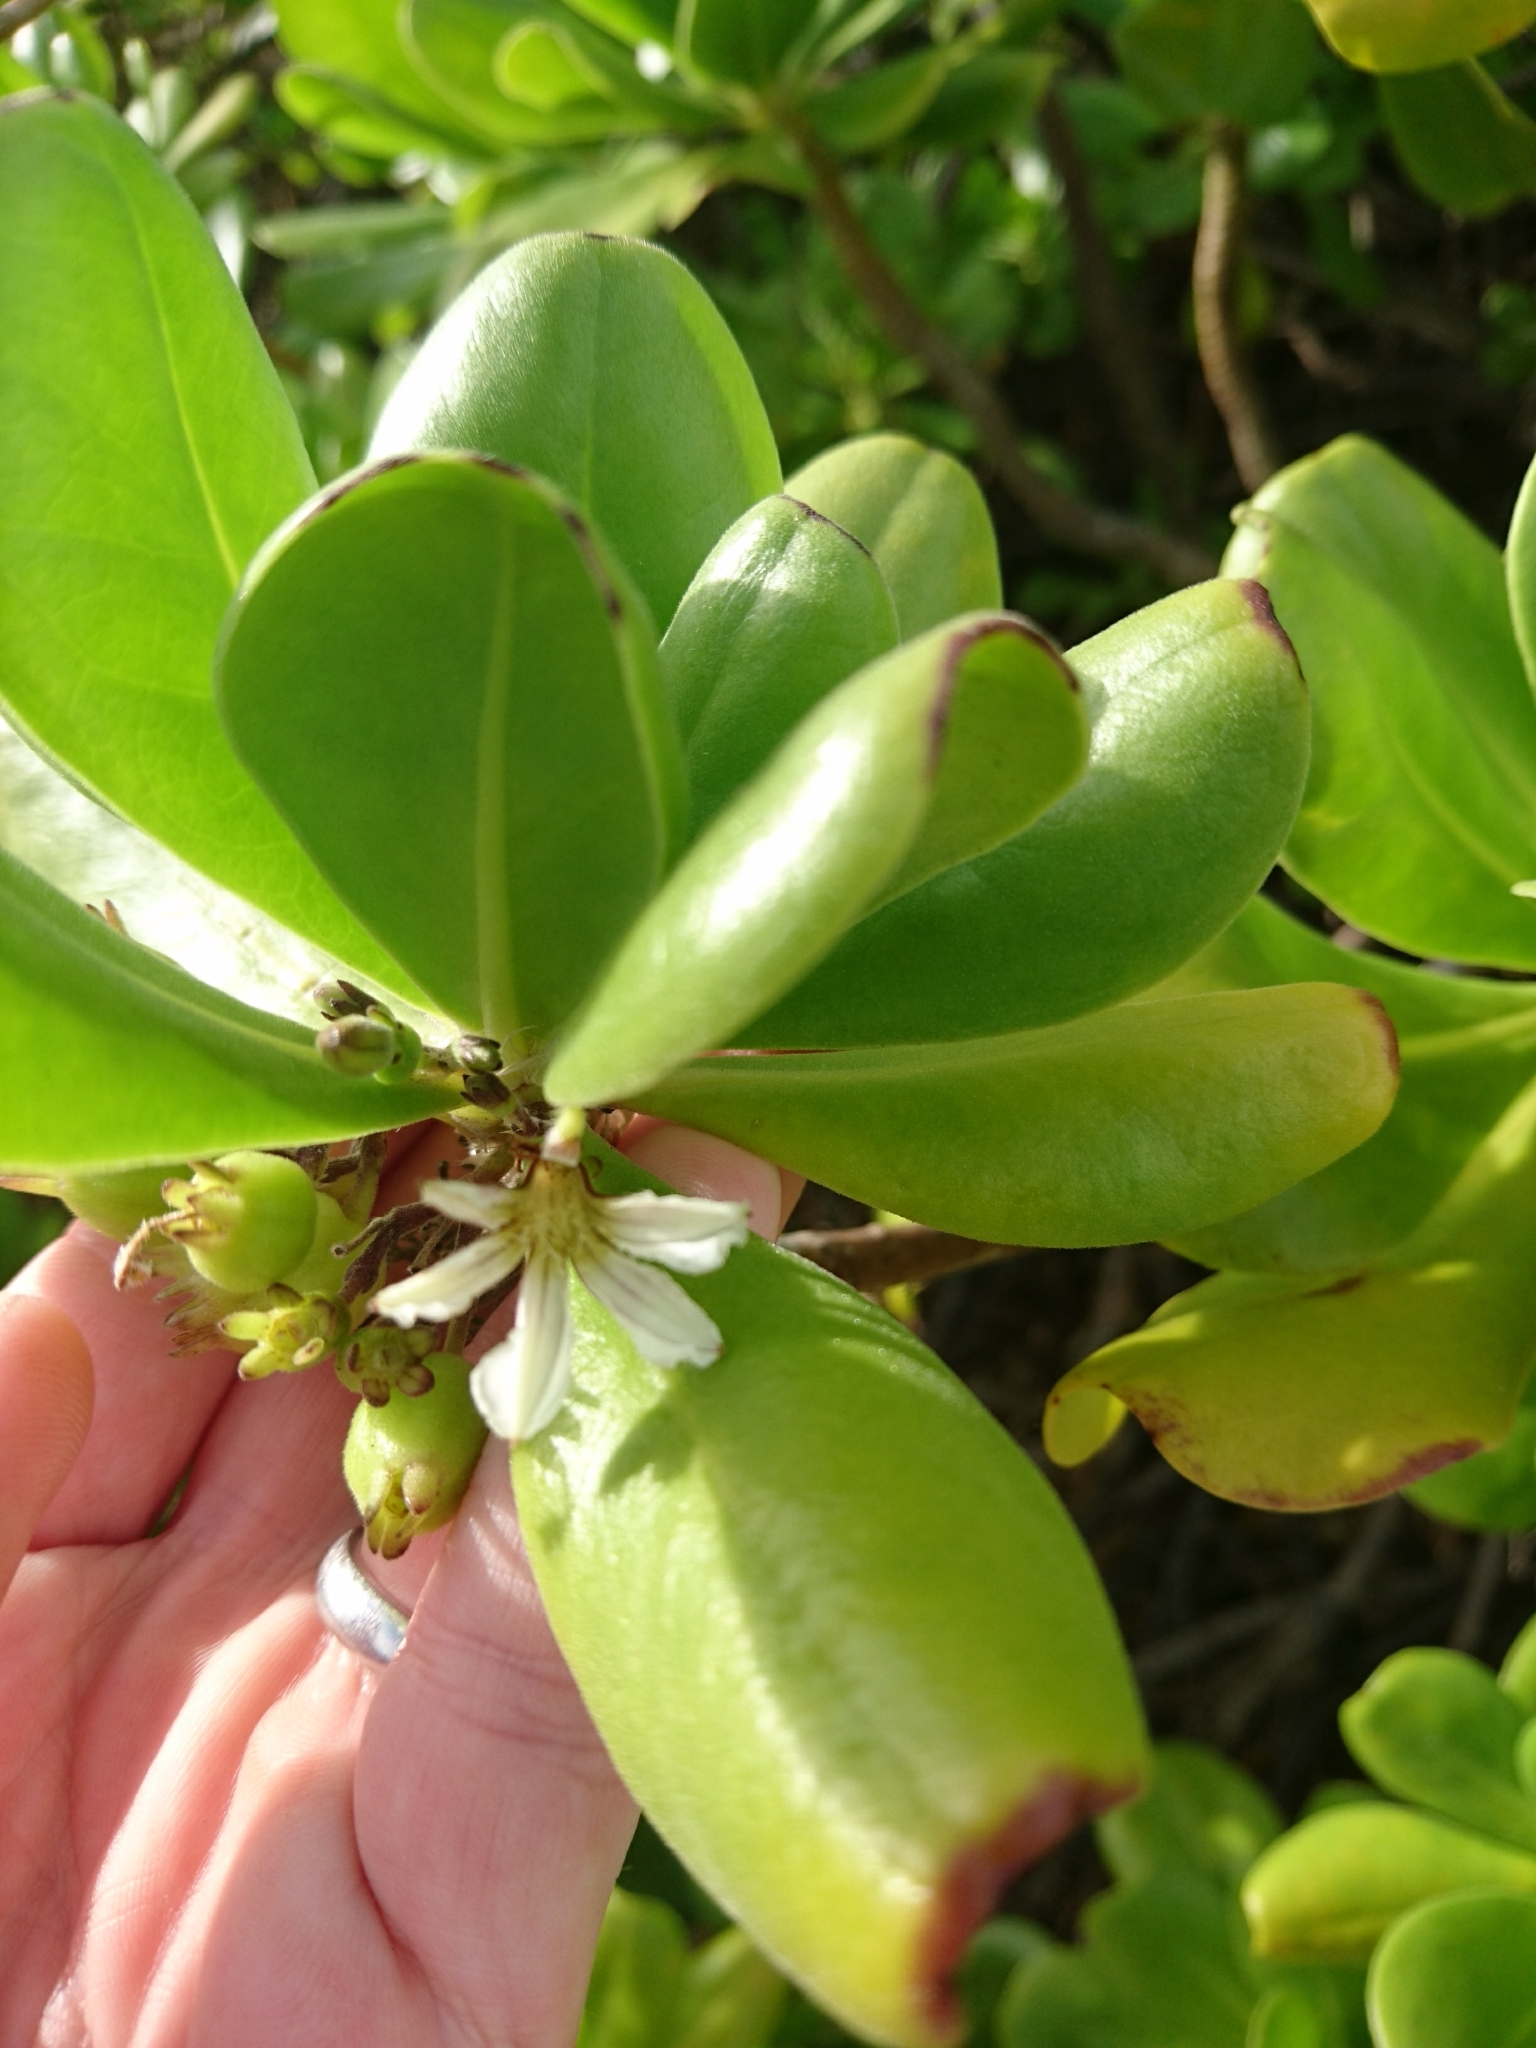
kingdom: Plantae
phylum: Tracheophyta
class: Magnoliopsida
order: Asterales
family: Goodeniaceae
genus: Scaevola
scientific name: Scaevola taccada
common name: Sea lettucetree
